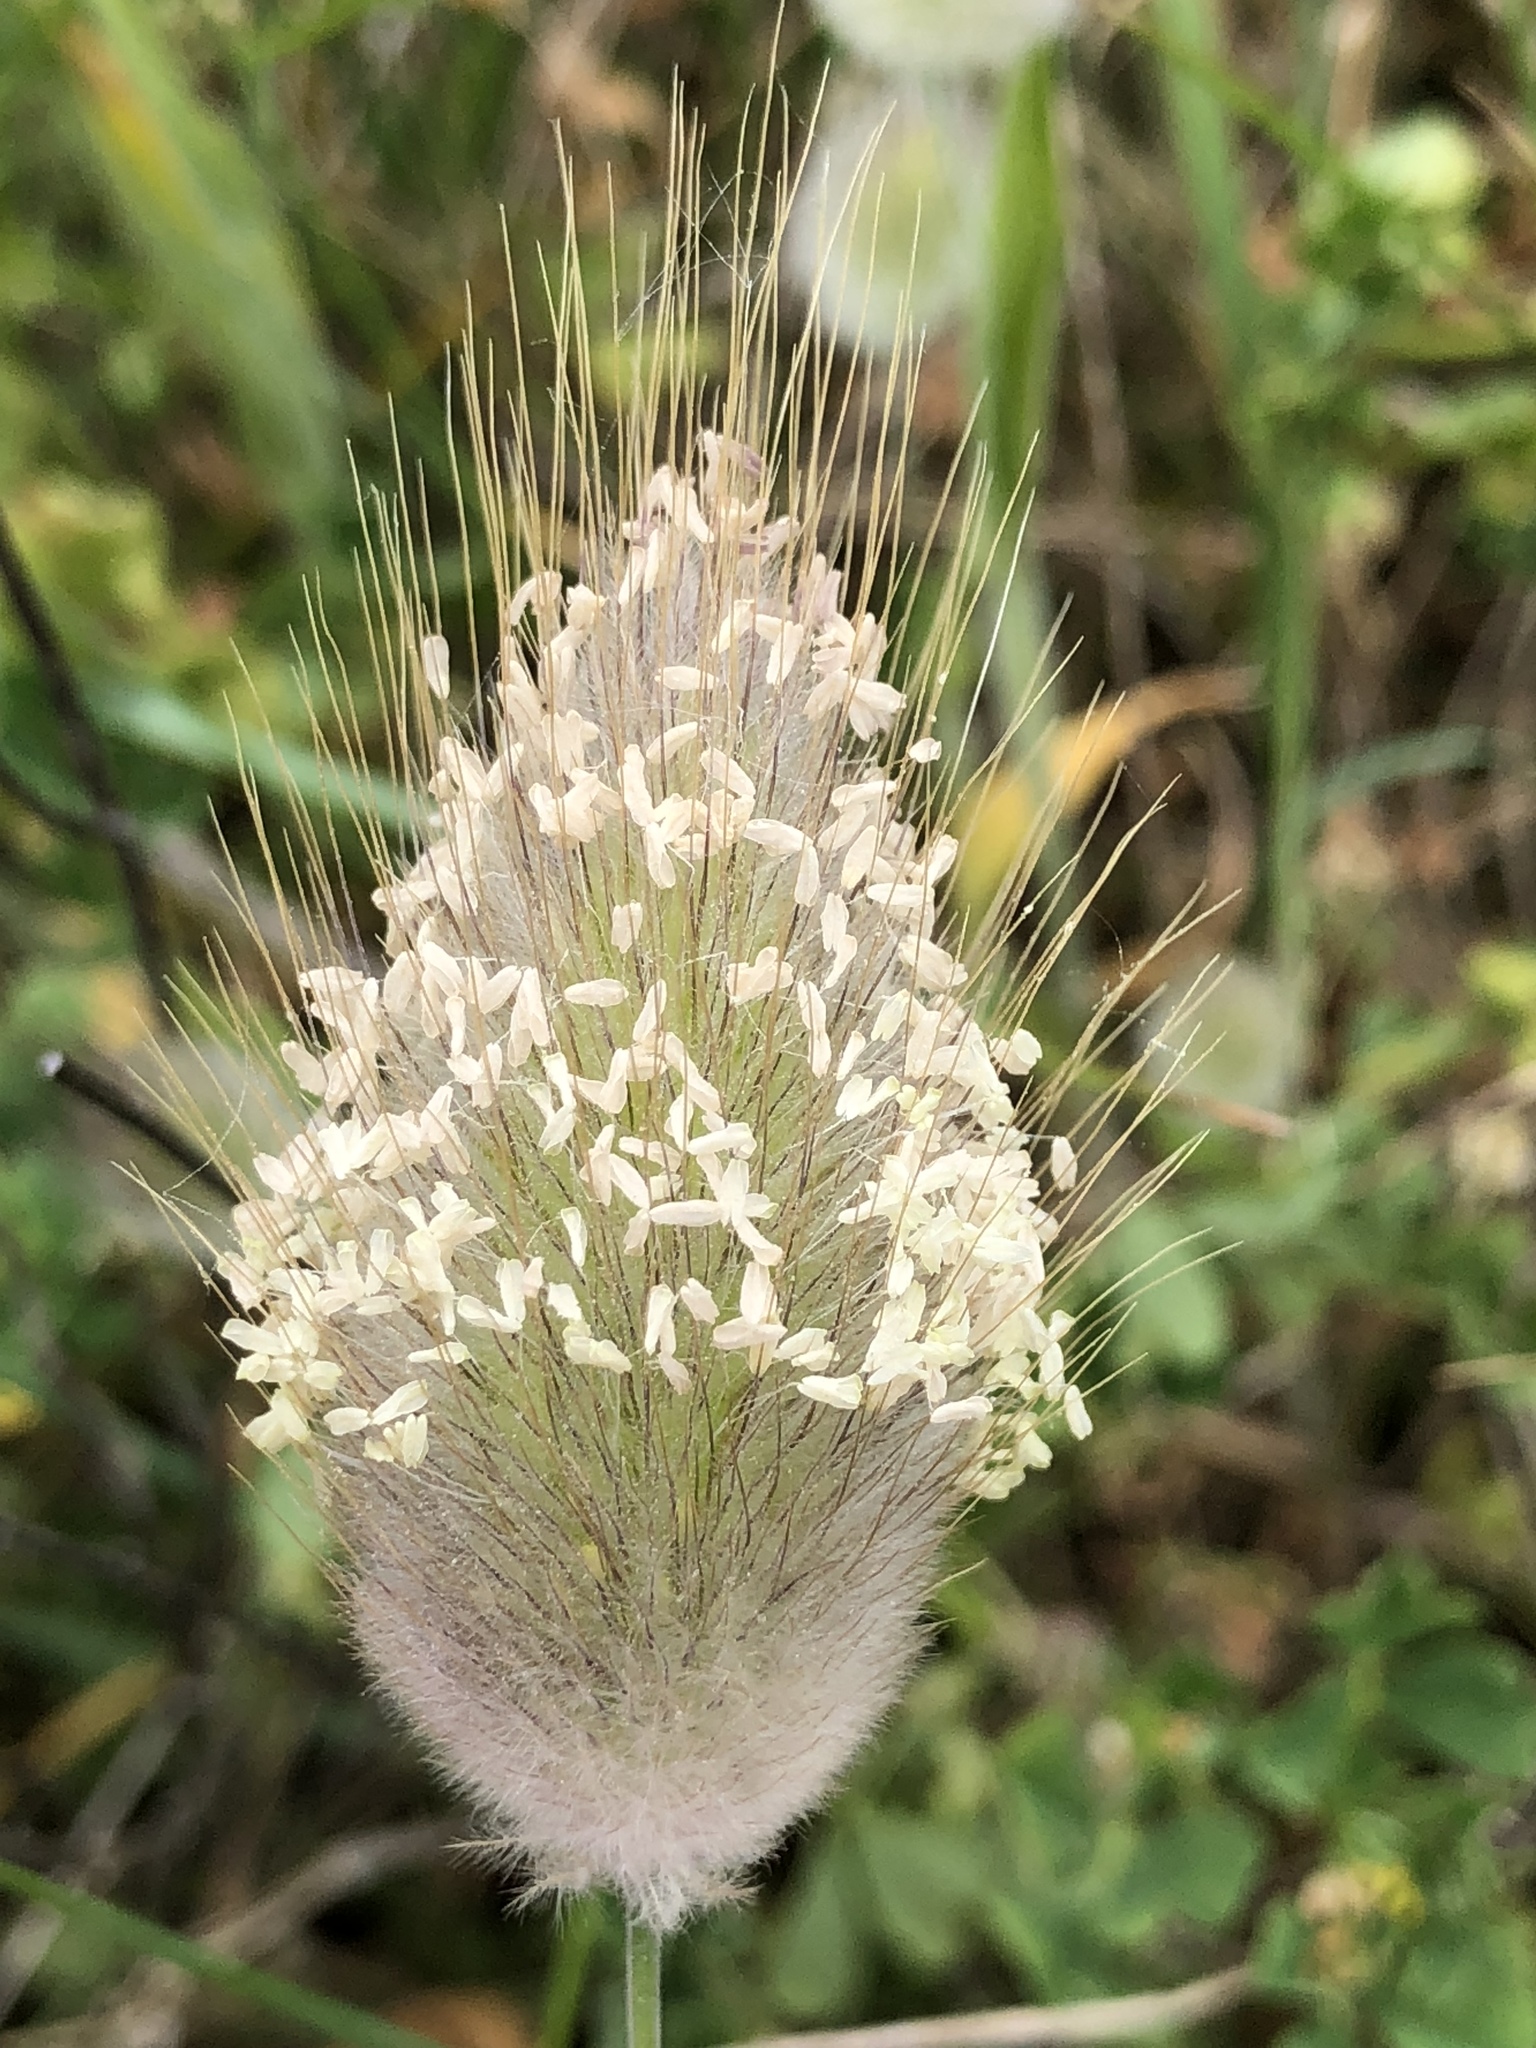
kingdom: Plantae
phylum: Tracheophyta
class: Liliopsida
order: Poales
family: Poaceae
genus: Lagurus
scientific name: Lagurus ovatus
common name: Hare's-tail
